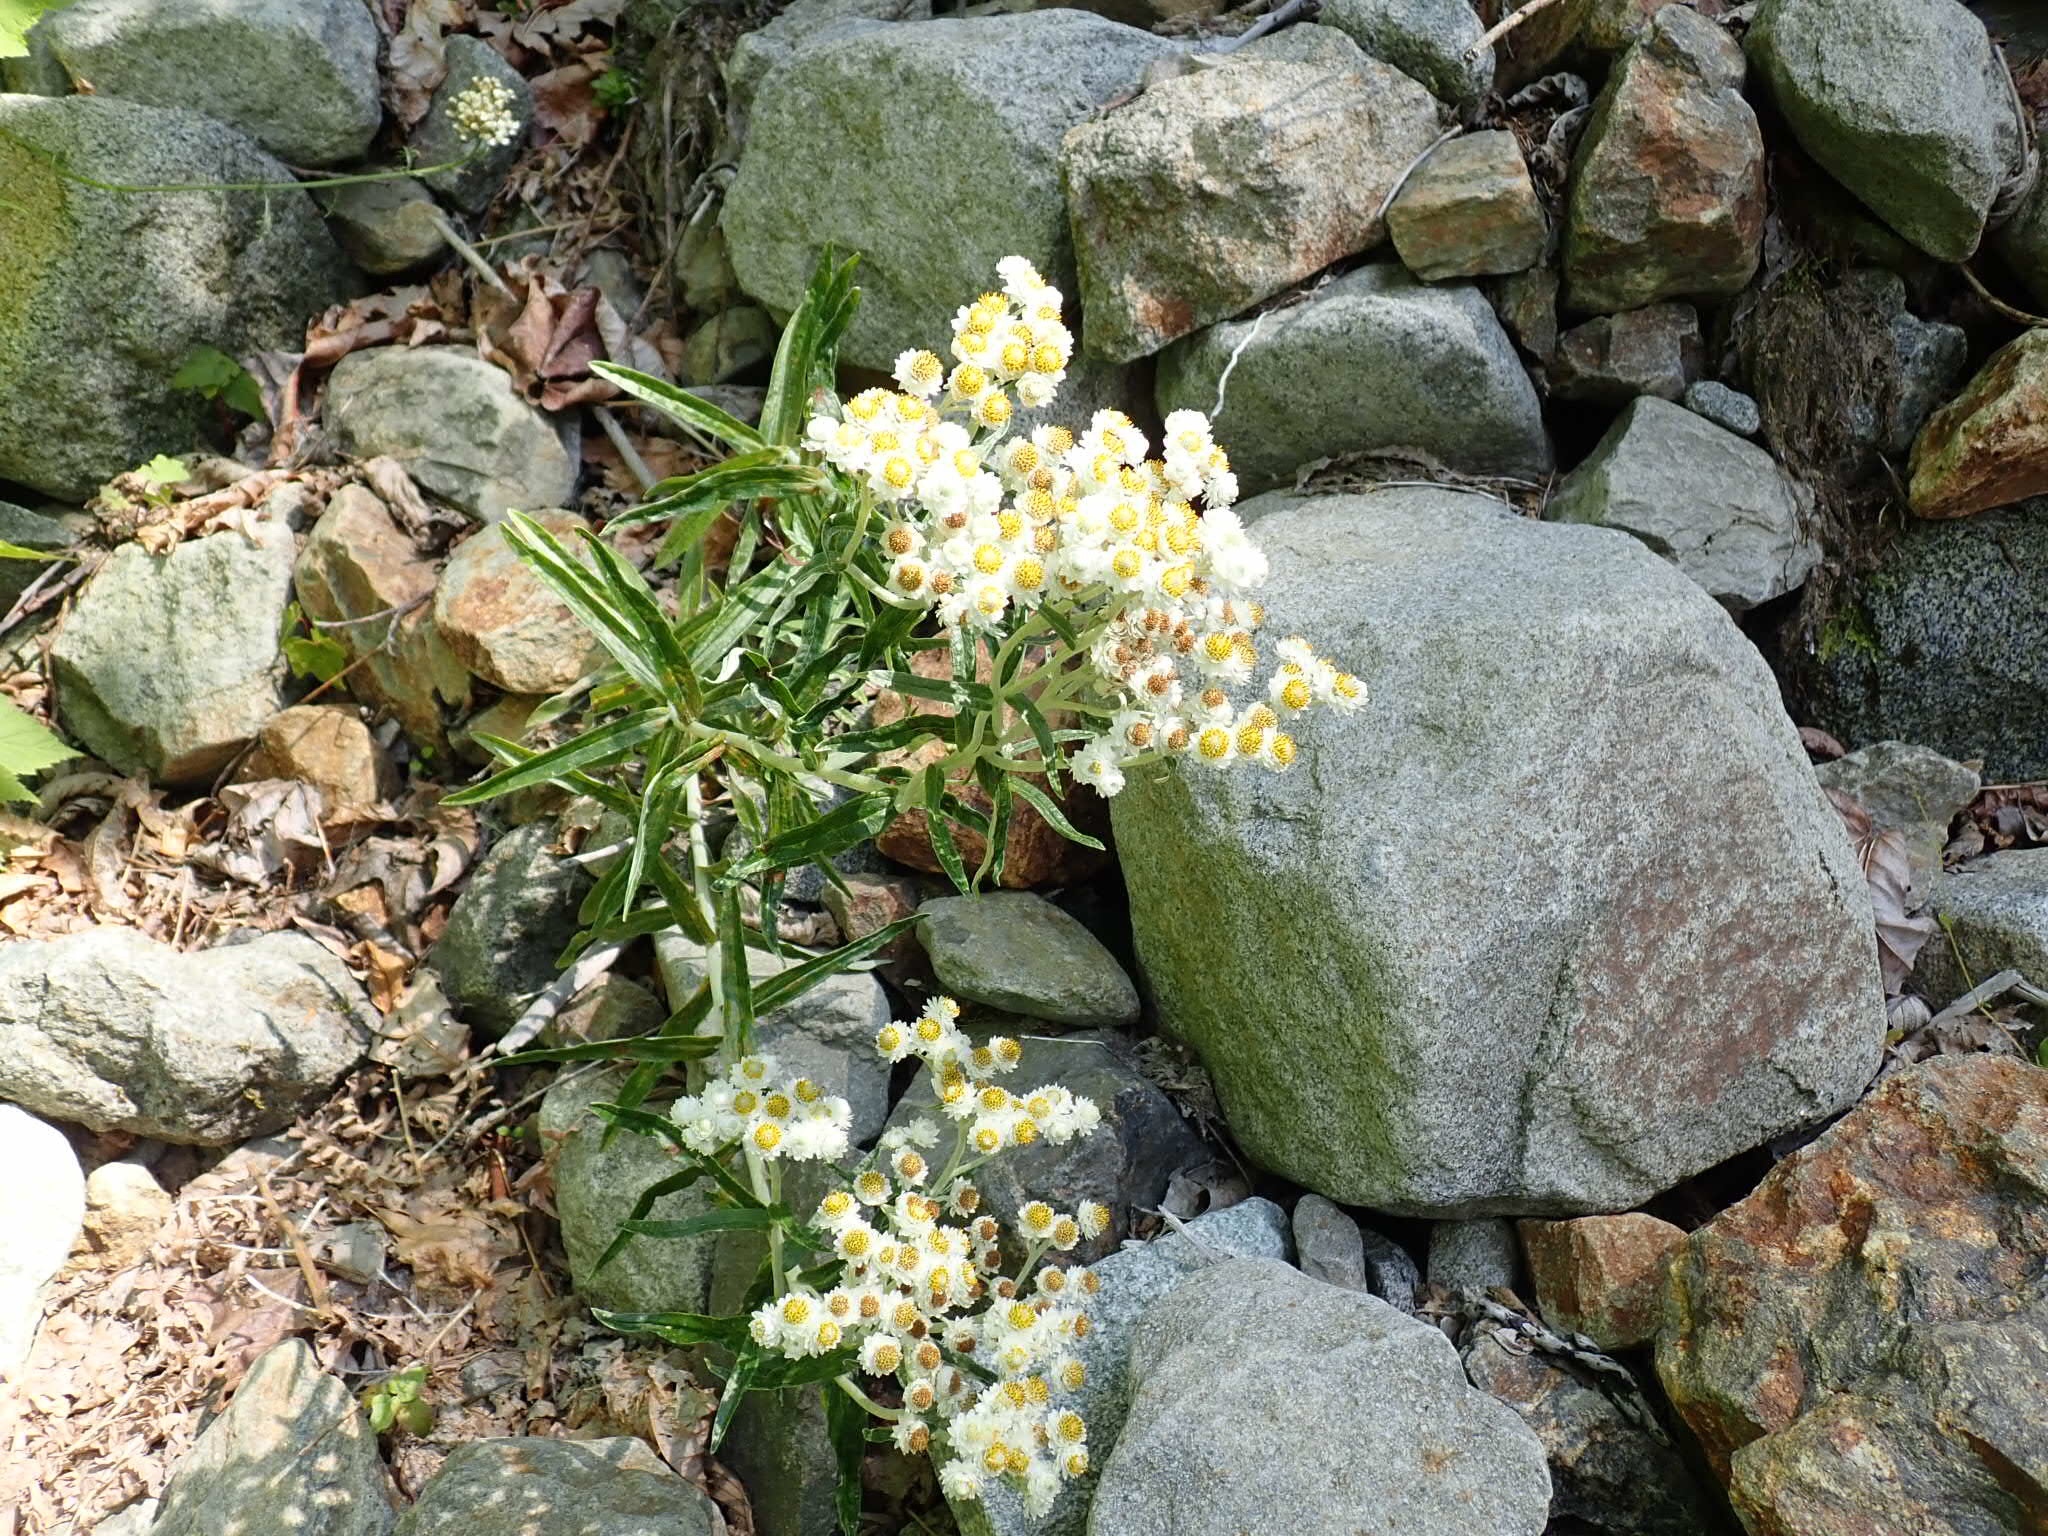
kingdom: Plantae
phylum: Tracheophyta
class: Magnoliopsida
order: Asterales
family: Asteraceae
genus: Anaphalis
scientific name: Anaphalis margaritacea
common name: Pearly everlasting
